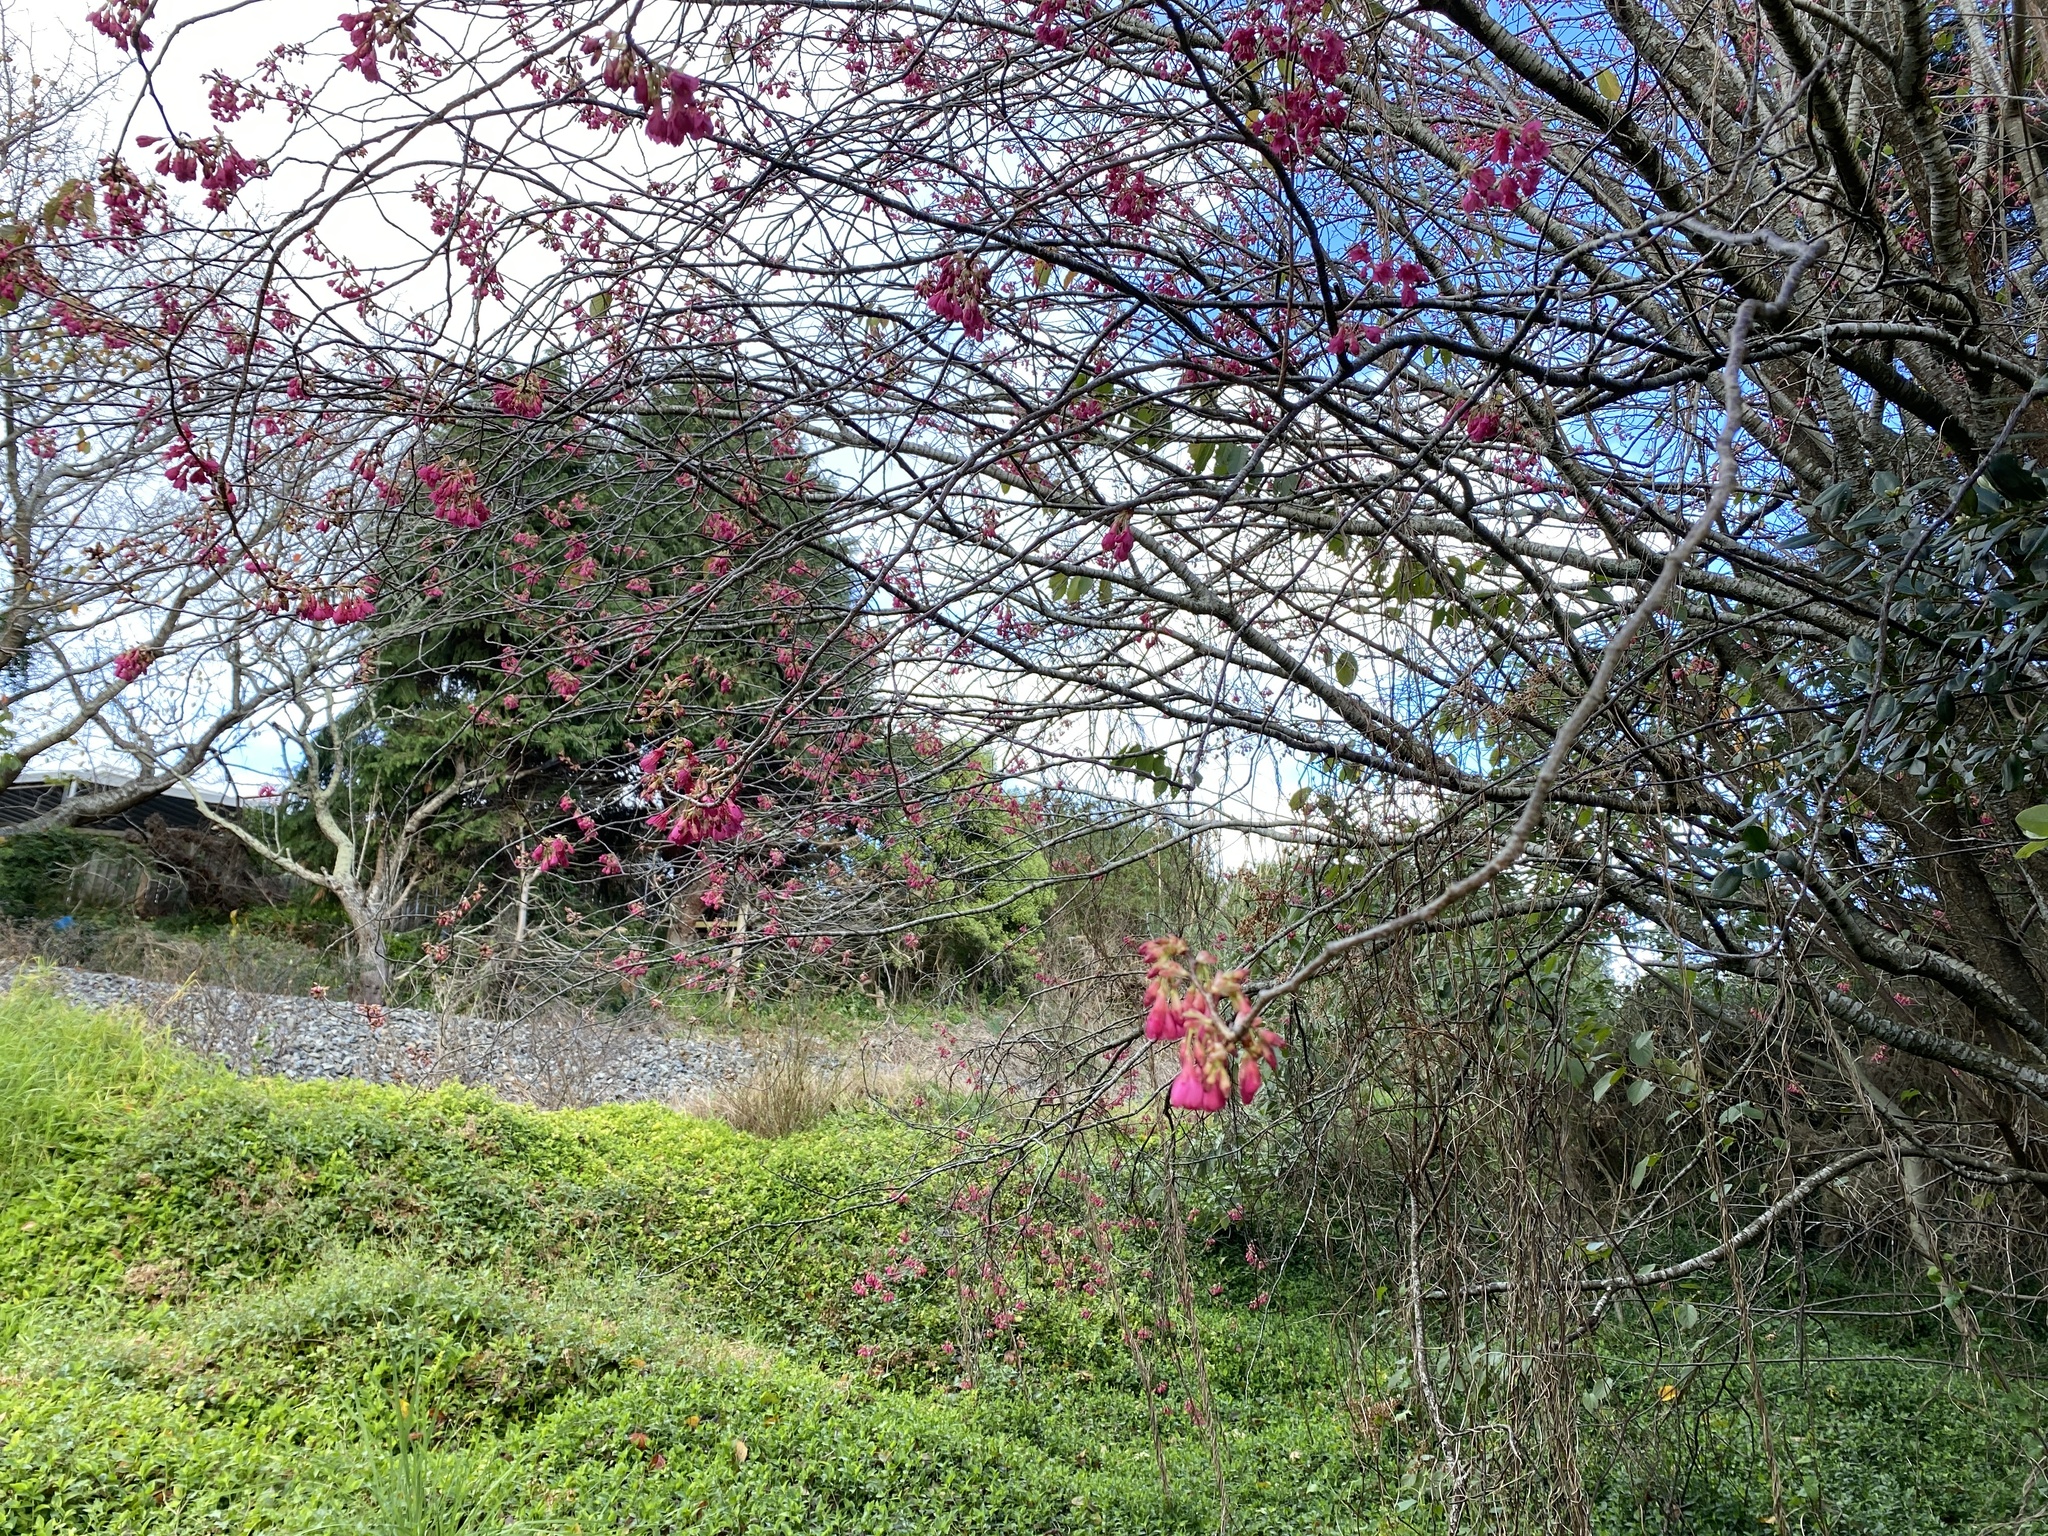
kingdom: Plantae
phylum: Tracheophyta
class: Magnoliopsida
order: Rosales
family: Rosaceae
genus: Prunus
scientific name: Prunus campanulata
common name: Taiwan flowering cherry
